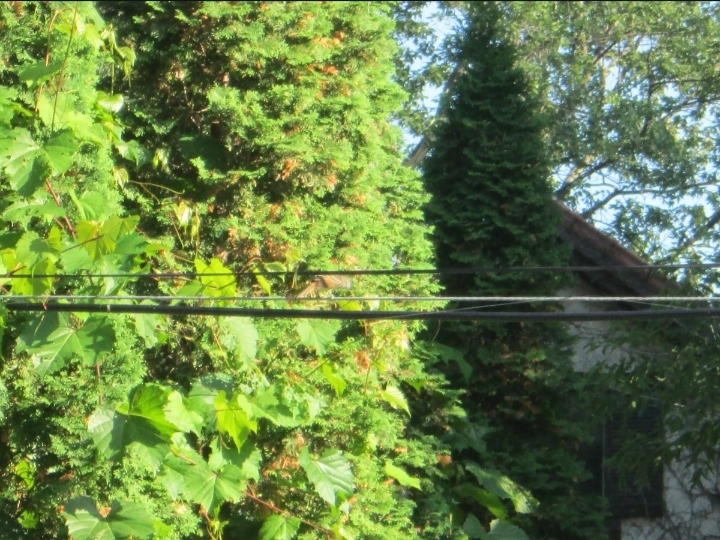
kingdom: Animalia
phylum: Chordata
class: Aves
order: Passeriformes
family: Mimidae
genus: Toxostoma
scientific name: Toxostoma rufum
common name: Brown thrasher
